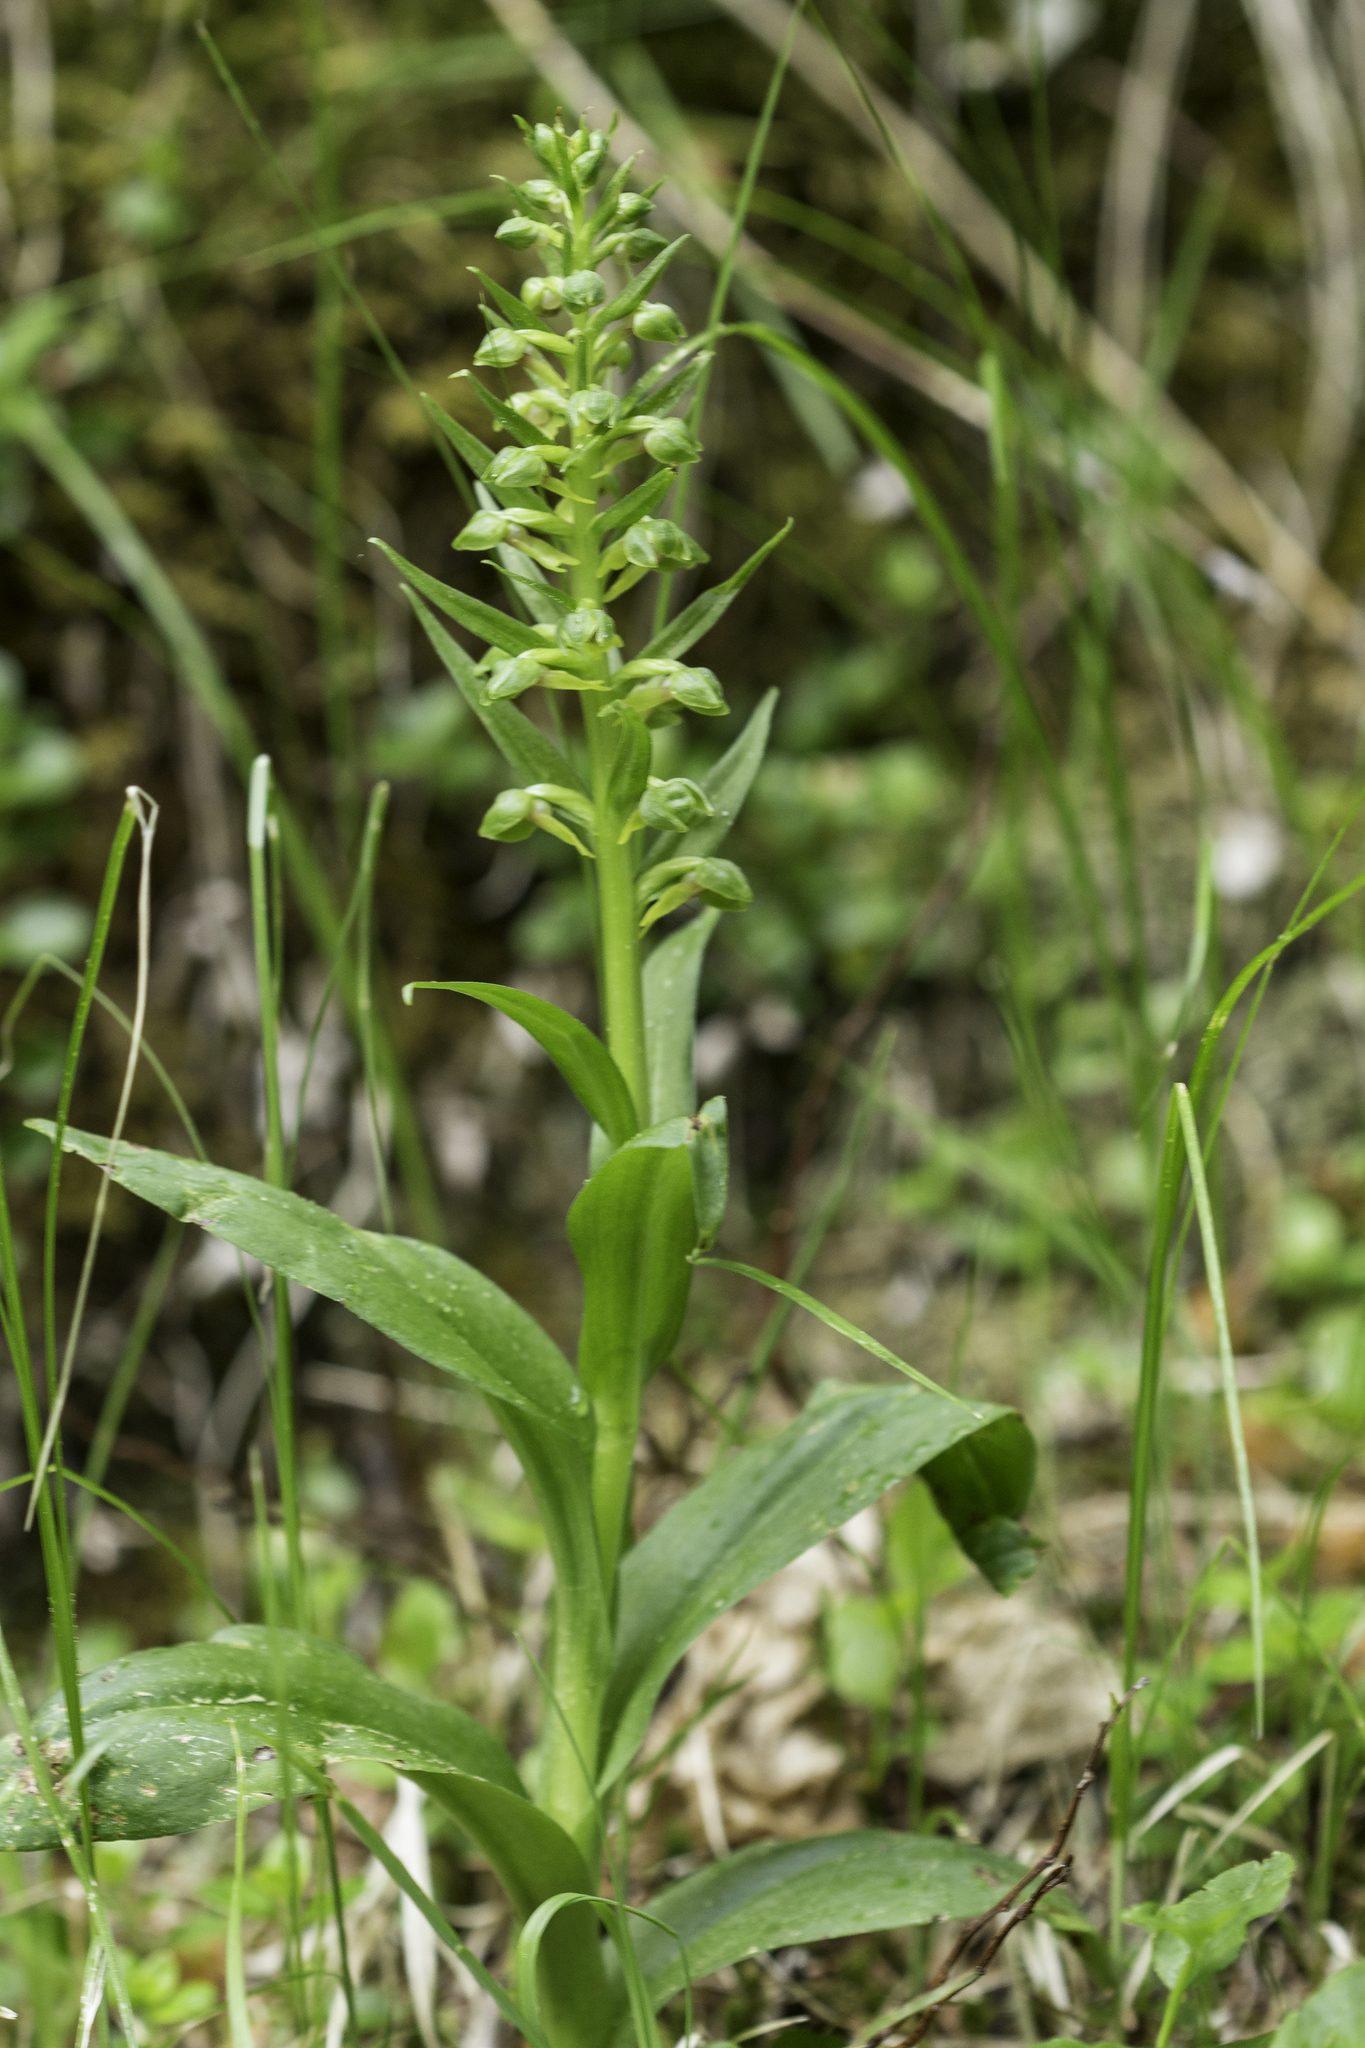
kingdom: Plantae
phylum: Tracheophyta
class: Liliopsida
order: Asparagales
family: Orchidaceae
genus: Dactylorhiza
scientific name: Dactylorhiza viridis
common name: Longbract frog orchid
